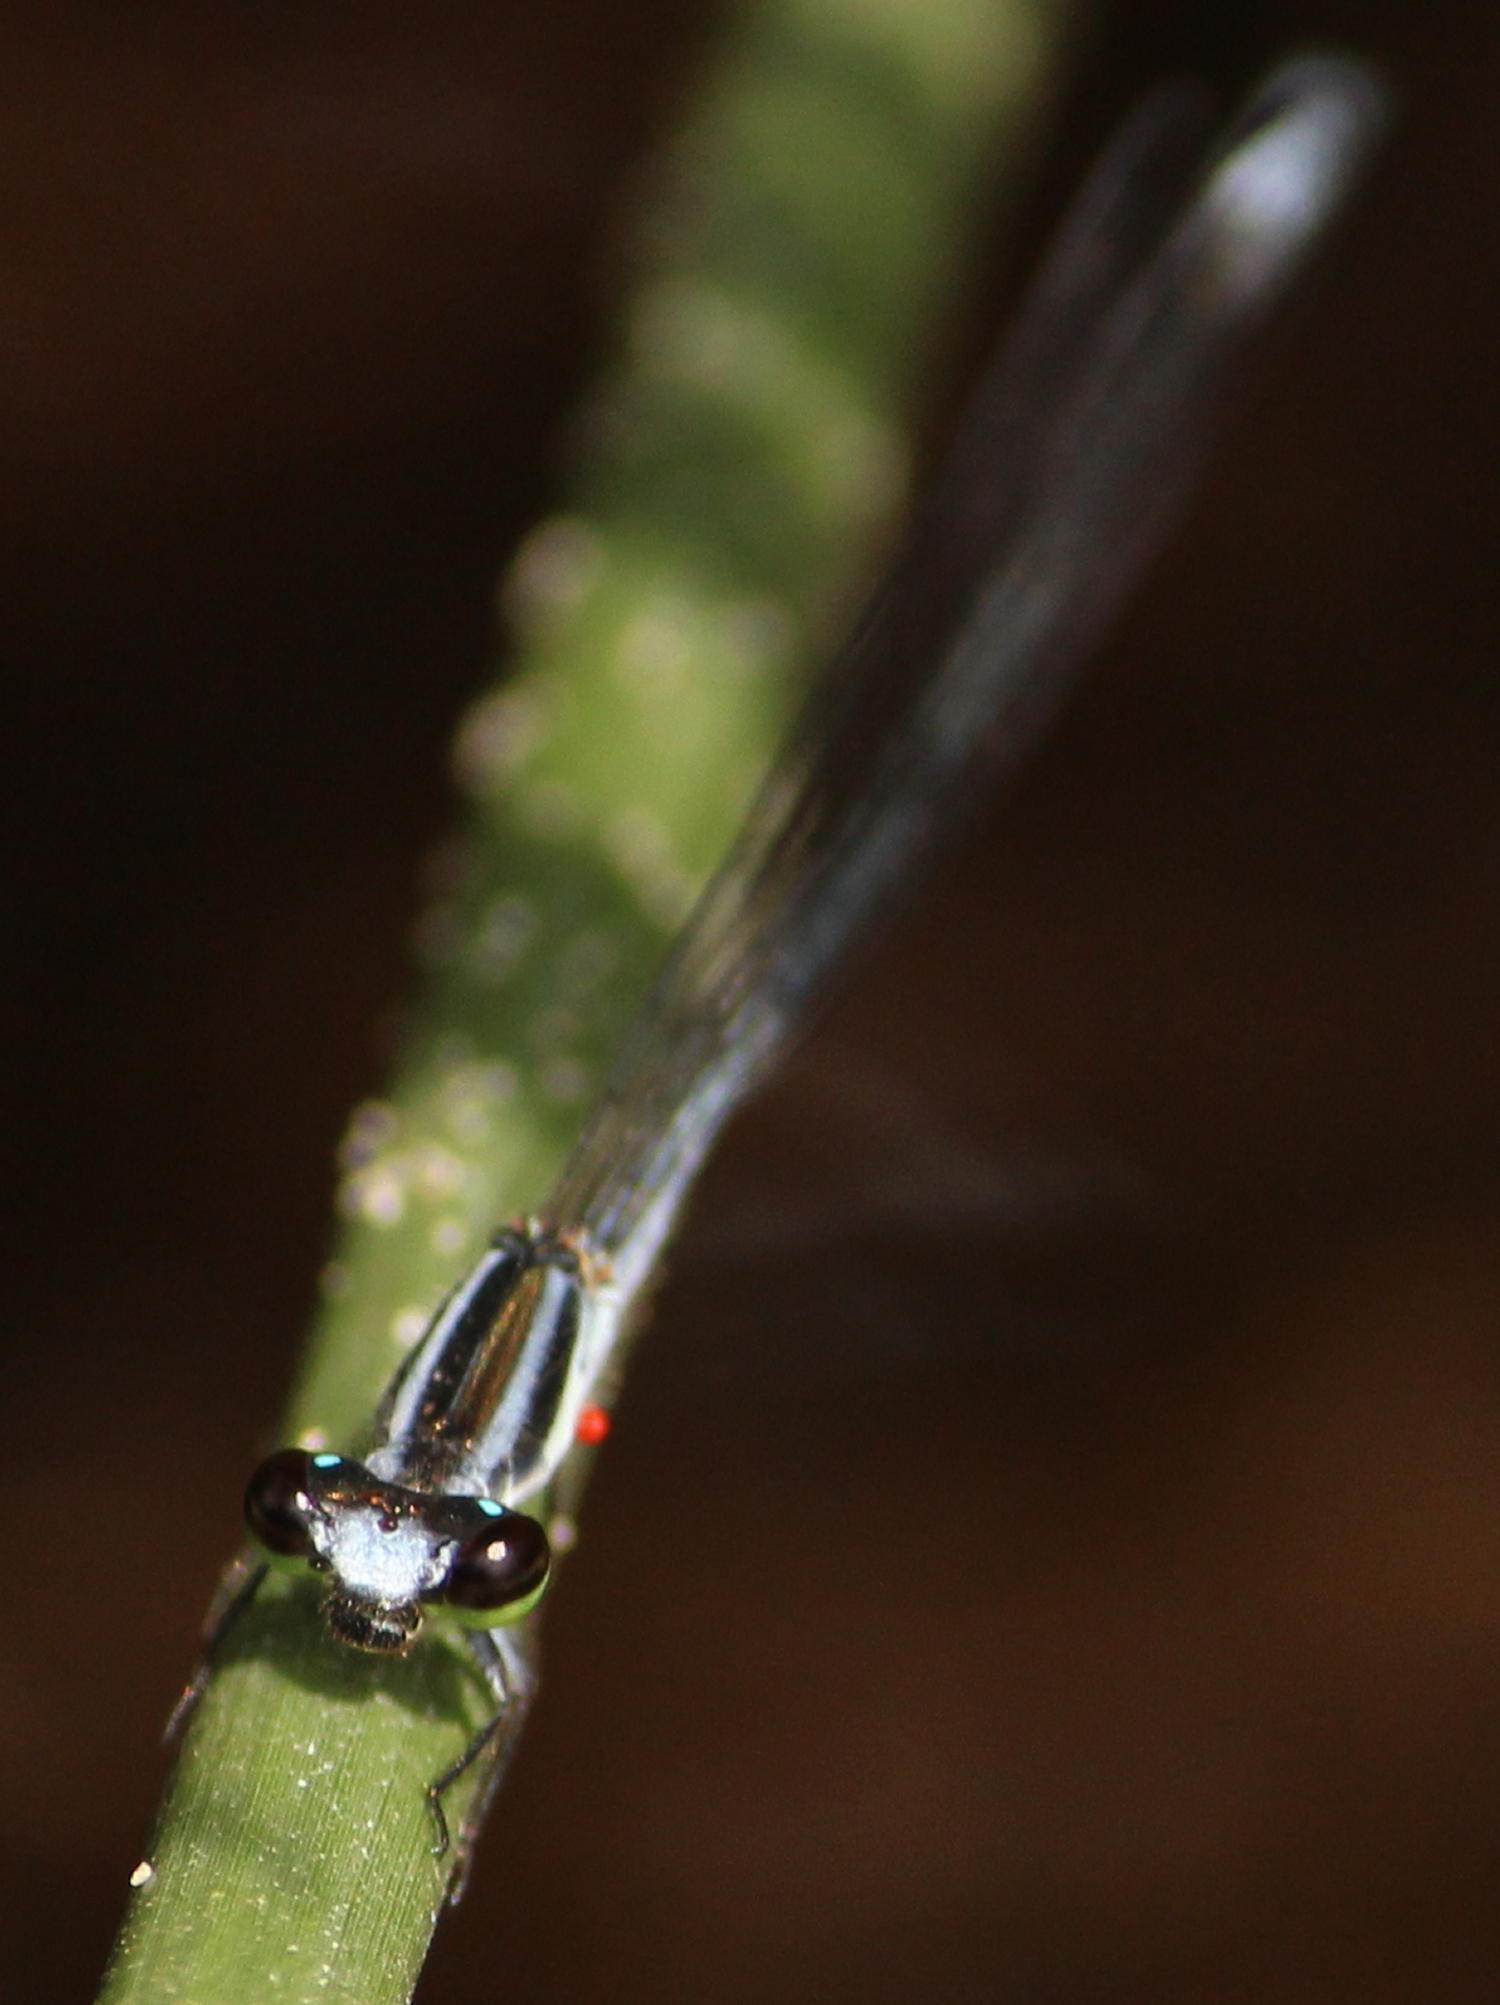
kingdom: Animalia
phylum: Arthropoda
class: Insecta
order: Odonata
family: Coenagrionidae
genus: Pseudagrion
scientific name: Pseudagrion kersteni
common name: Powder-faced sprite
